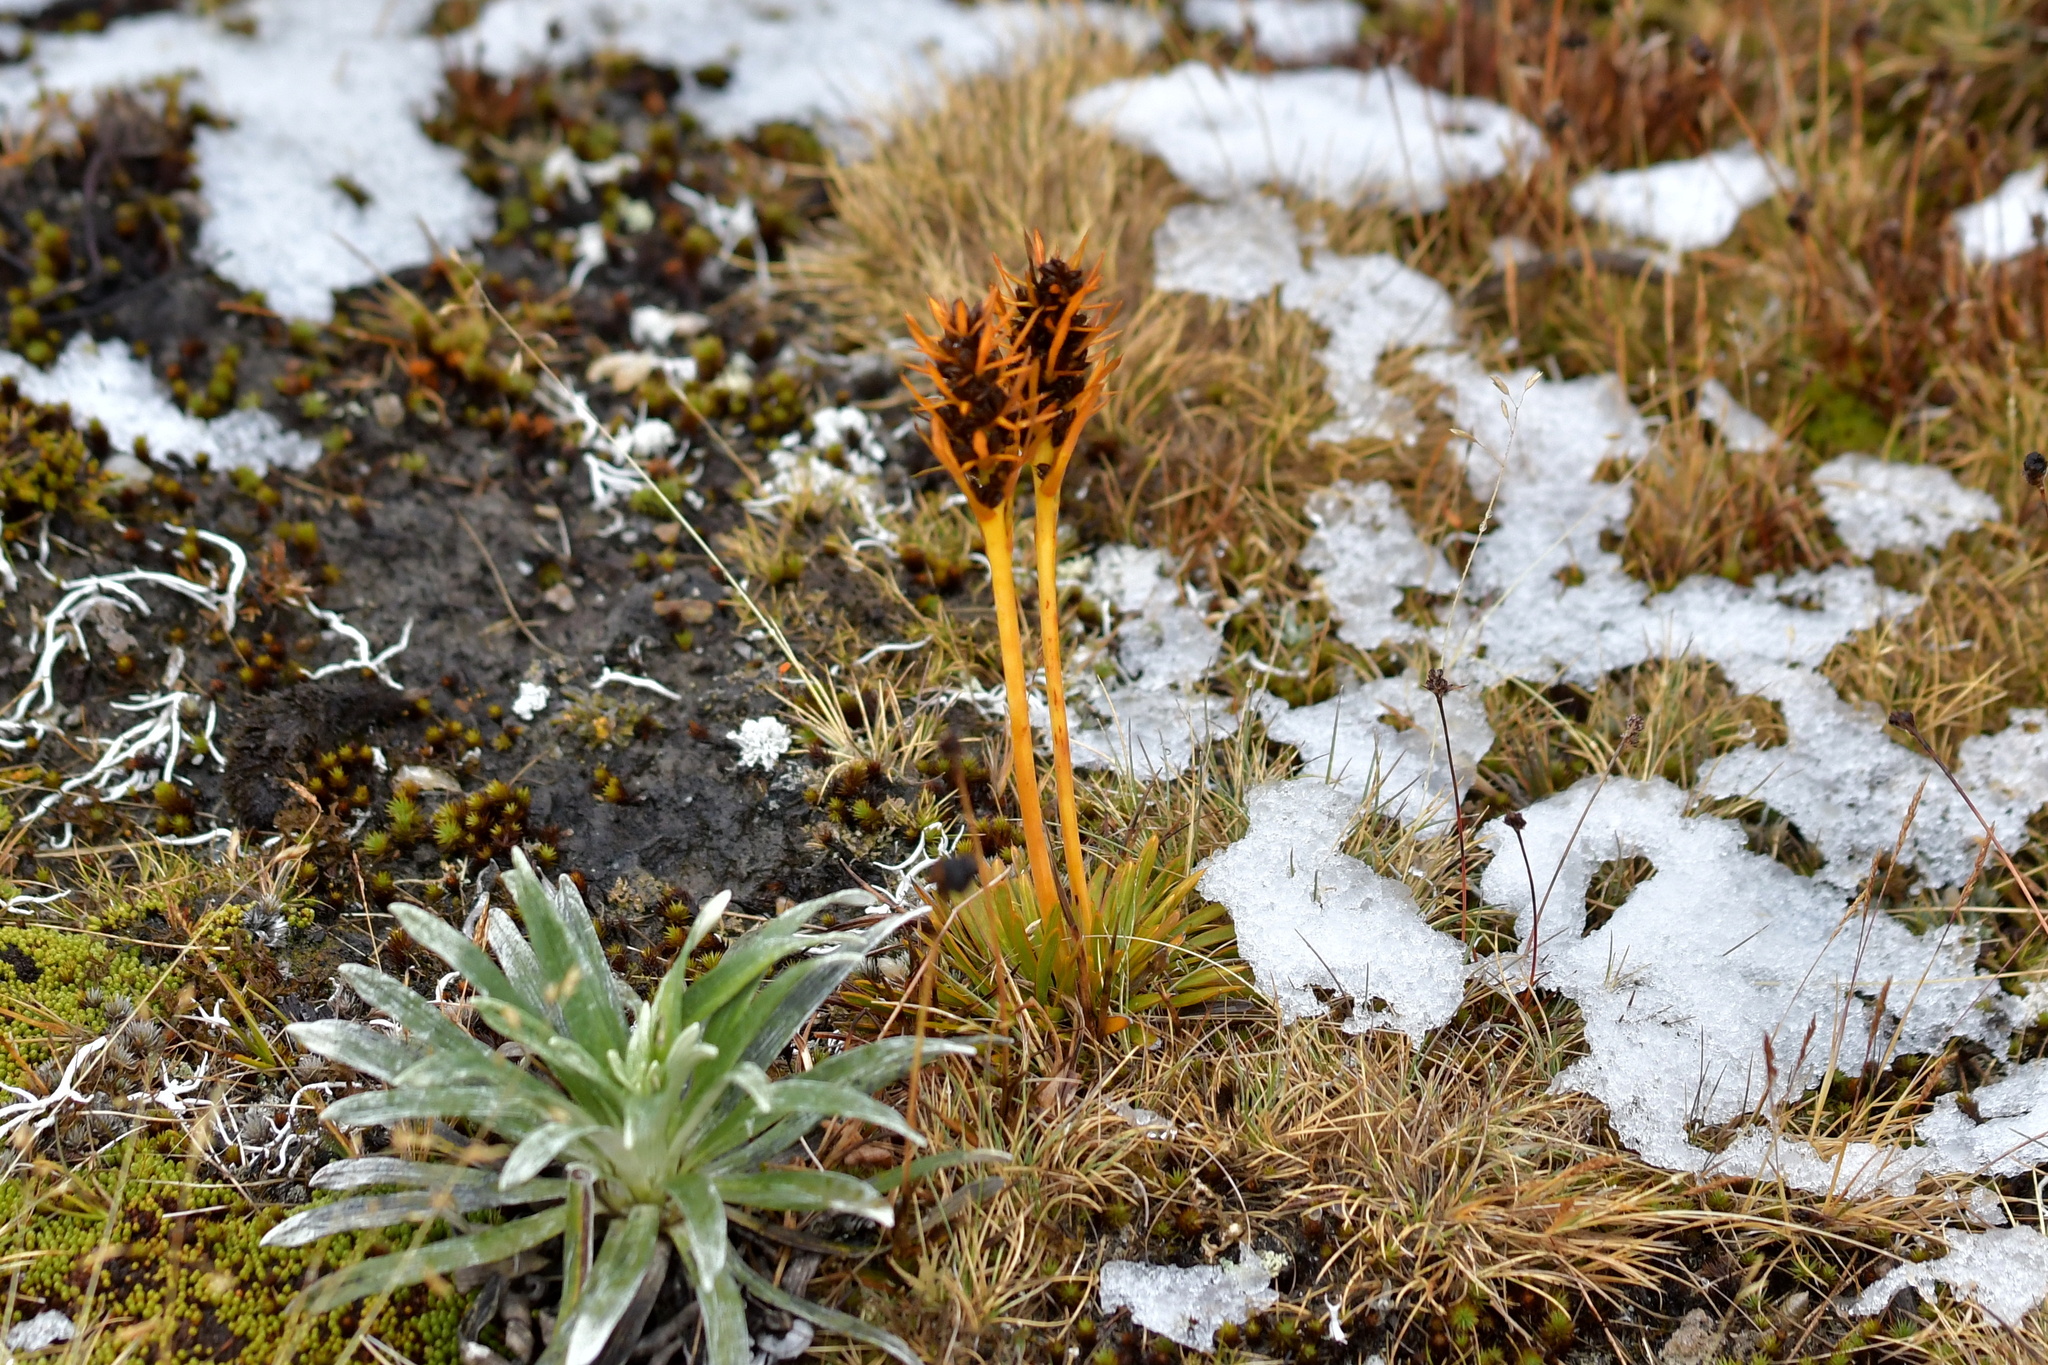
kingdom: Plantae
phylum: Tracheophyta
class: Magnoliopsida
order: Apiales
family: Apiaceae
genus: Aciphylla
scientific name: Aciphylla verticillata
